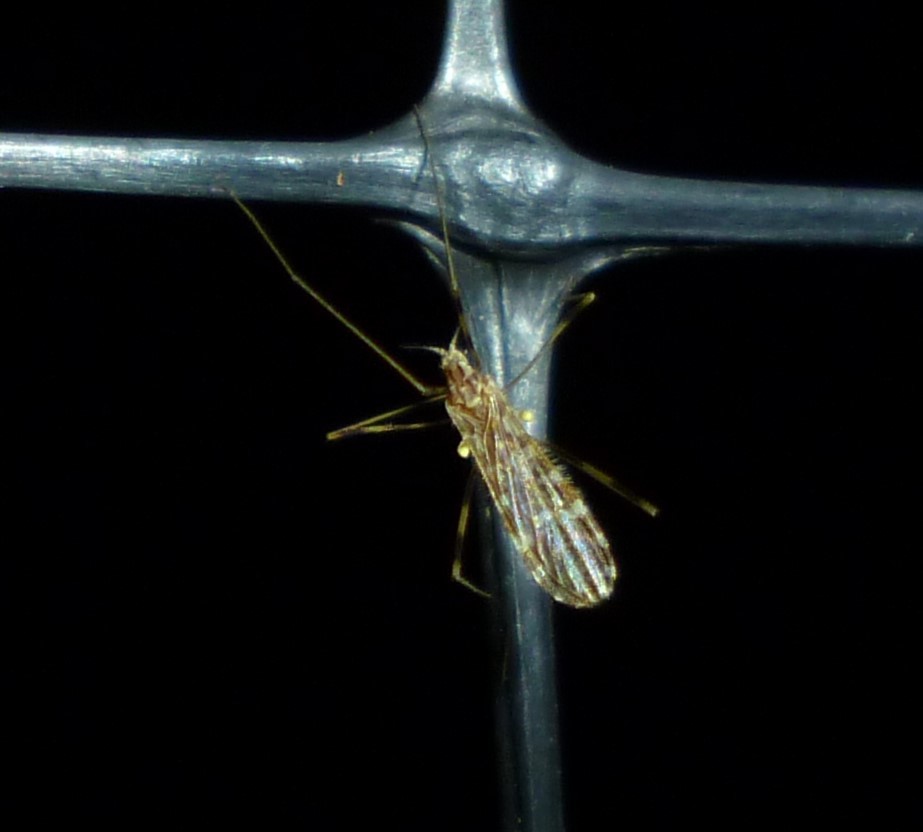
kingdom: Animalia
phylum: Arthropoda
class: Insecta
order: Diptera
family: Limoniidae
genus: Erioptera
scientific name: Erioptera caliptera
